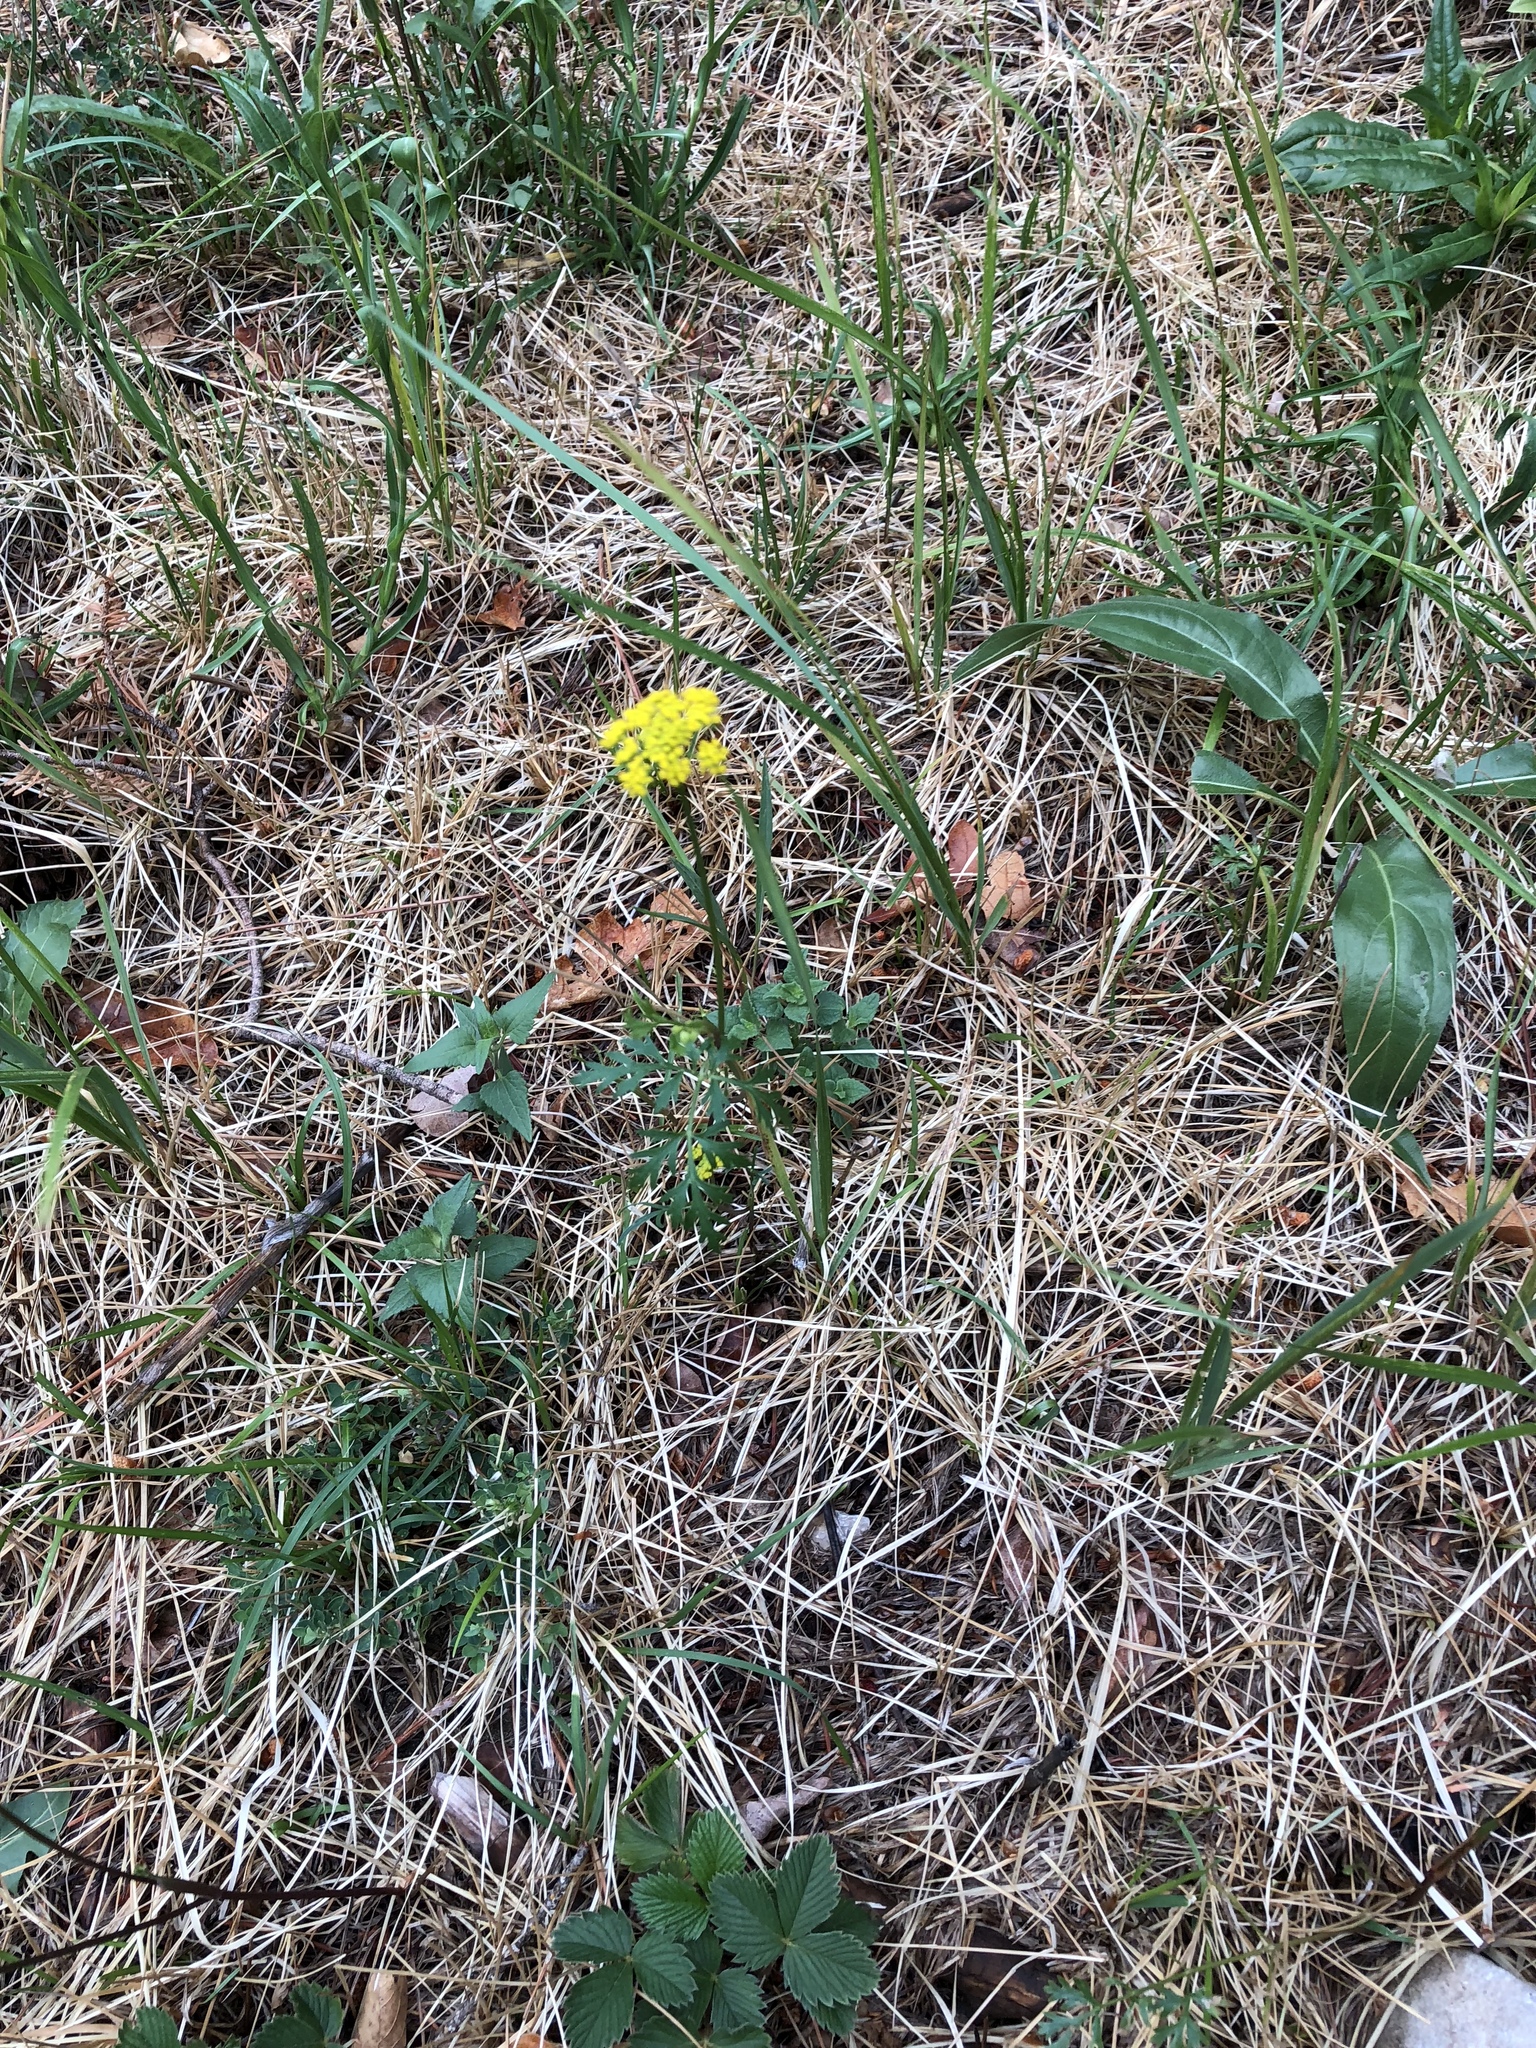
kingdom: Plantae
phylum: Tracheophyta
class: Magnoliopsida
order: Apiales
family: Apiaceae
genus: Cymopterus
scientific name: Cymopterus lemmonii
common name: Lemmon's spring-parsley
